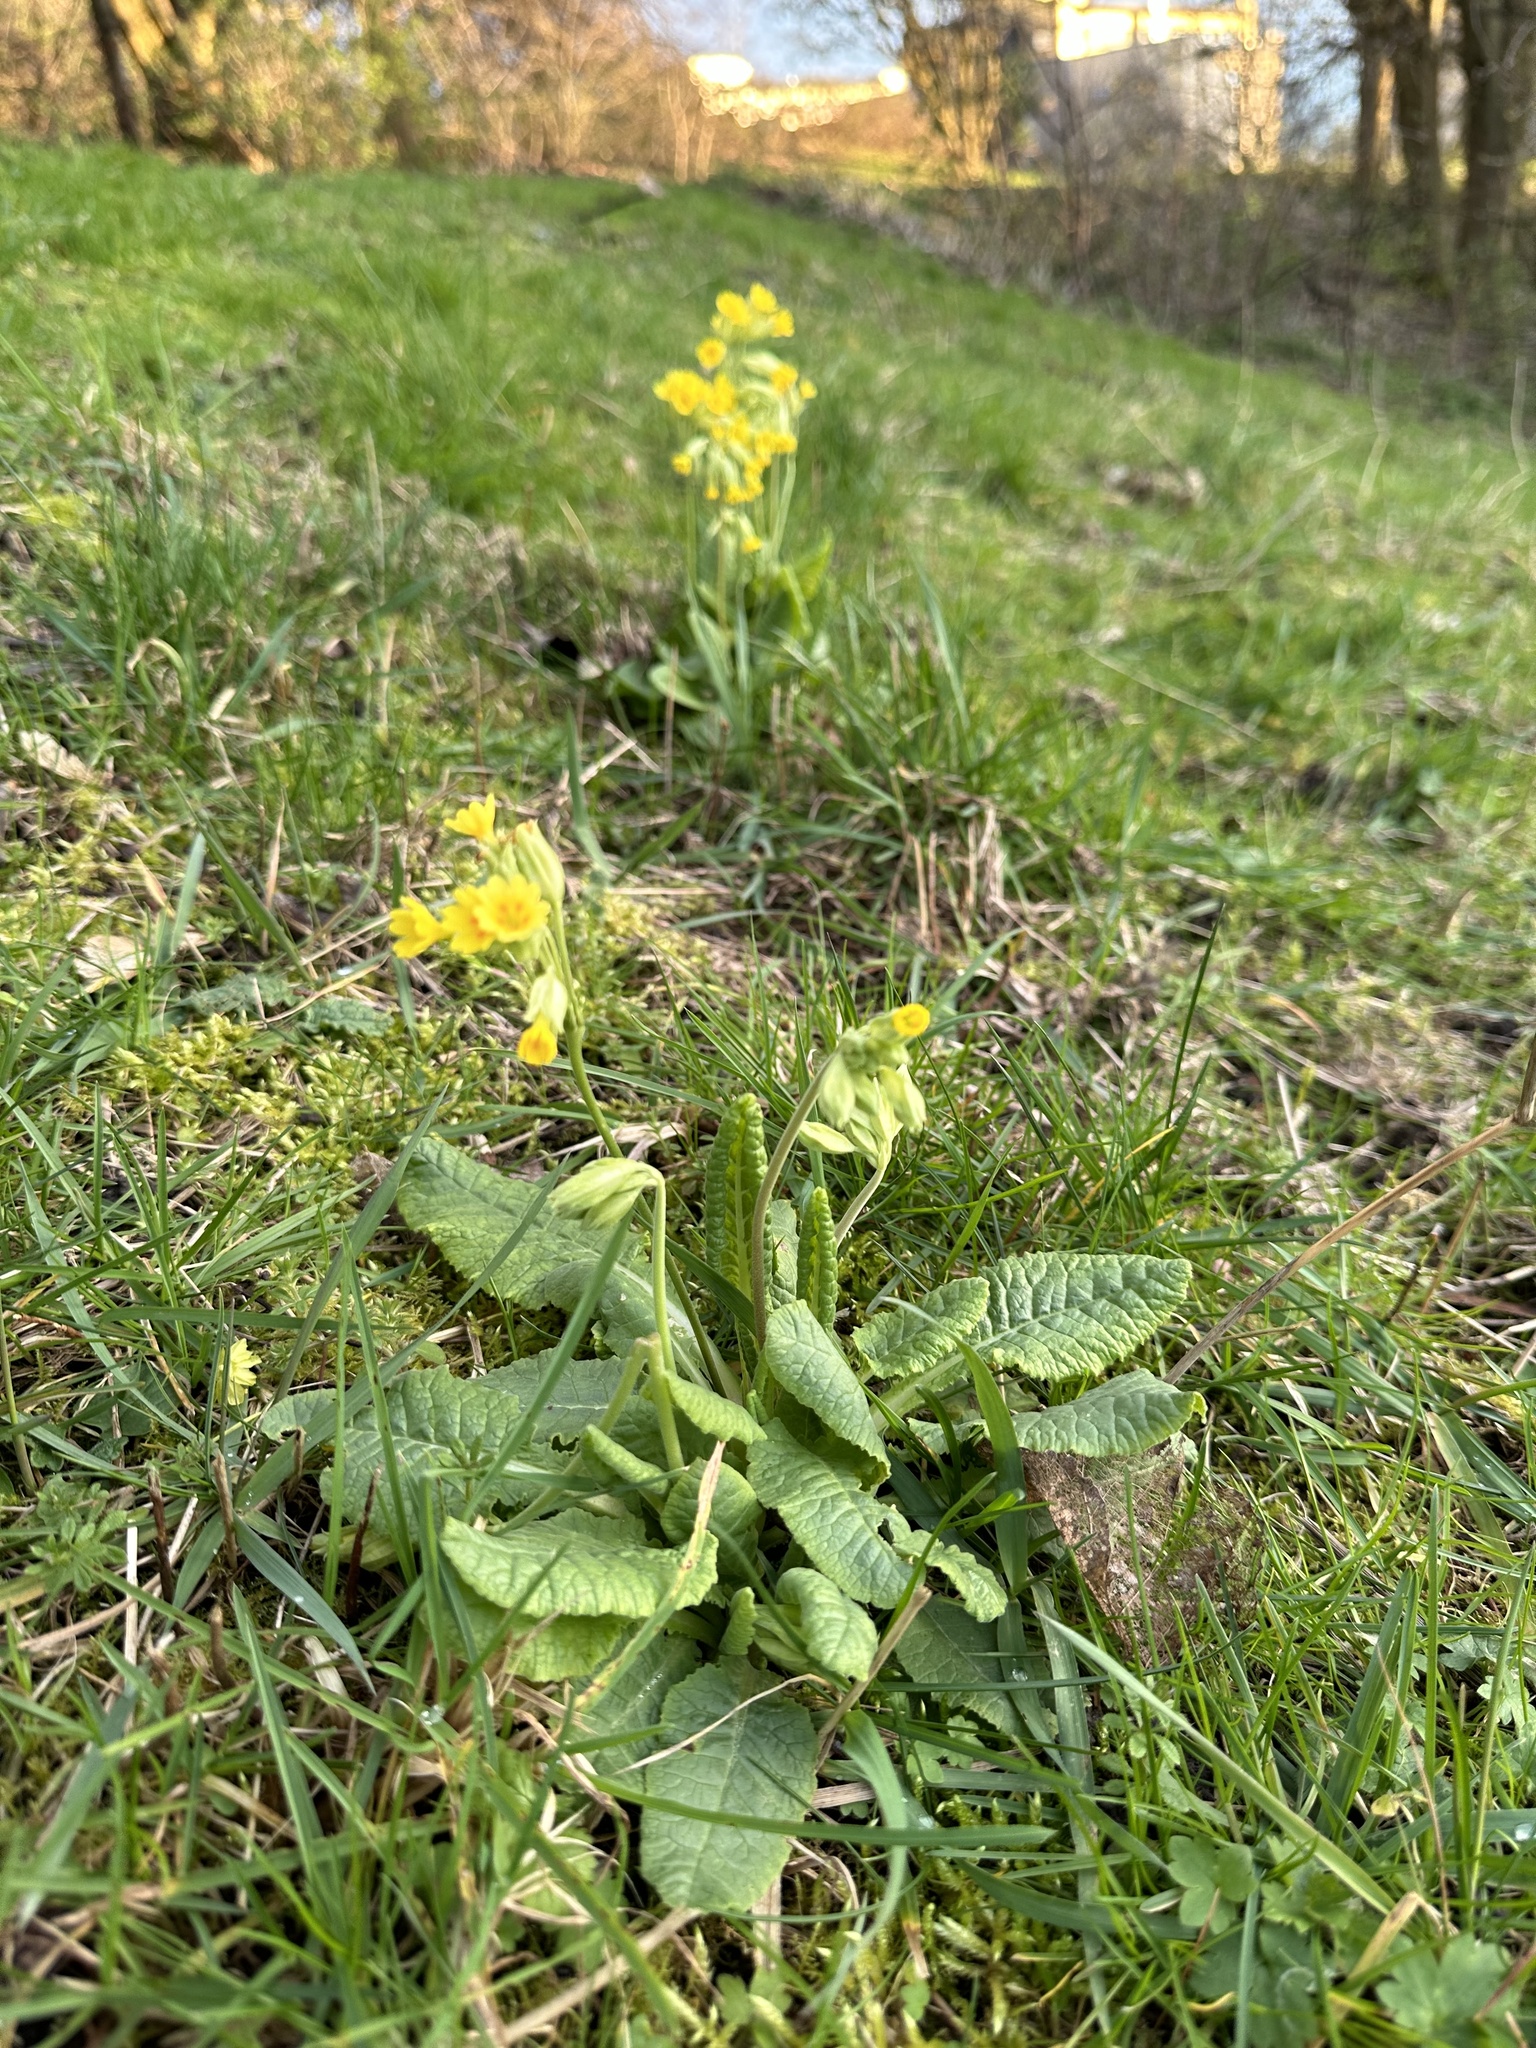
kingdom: Plantae
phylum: Tracheophyta
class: Magnoliopsida
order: Ericales
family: Primulaceae
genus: Primula
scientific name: Primula veris
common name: Cowslip
